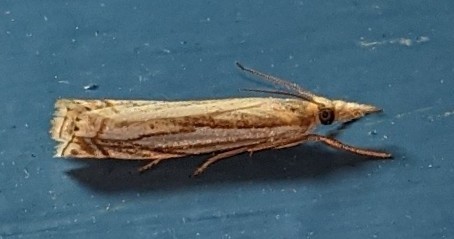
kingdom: Animalia
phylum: Arthropoda
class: Insecta
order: Lepidoptera
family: Crambidae
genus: Crambus
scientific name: Crambus saltuellus
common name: Pasture grass-veneer
